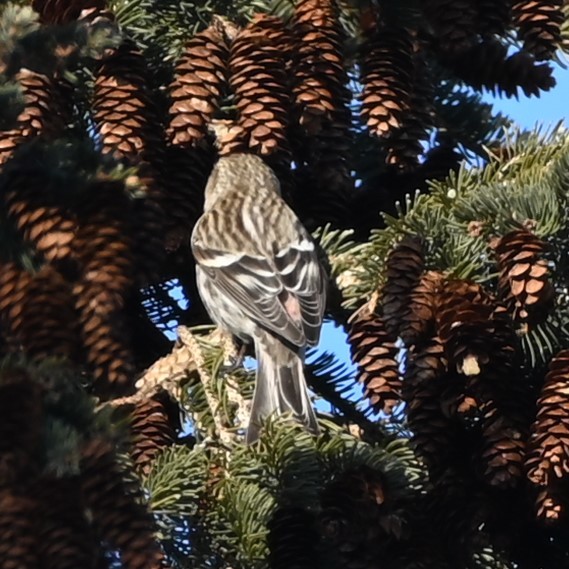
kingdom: Animalia
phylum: Chordata
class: Aves
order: Passeriformes
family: Fringillidae
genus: Acanthis
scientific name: Acanthis flammea
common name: Common redpoll
